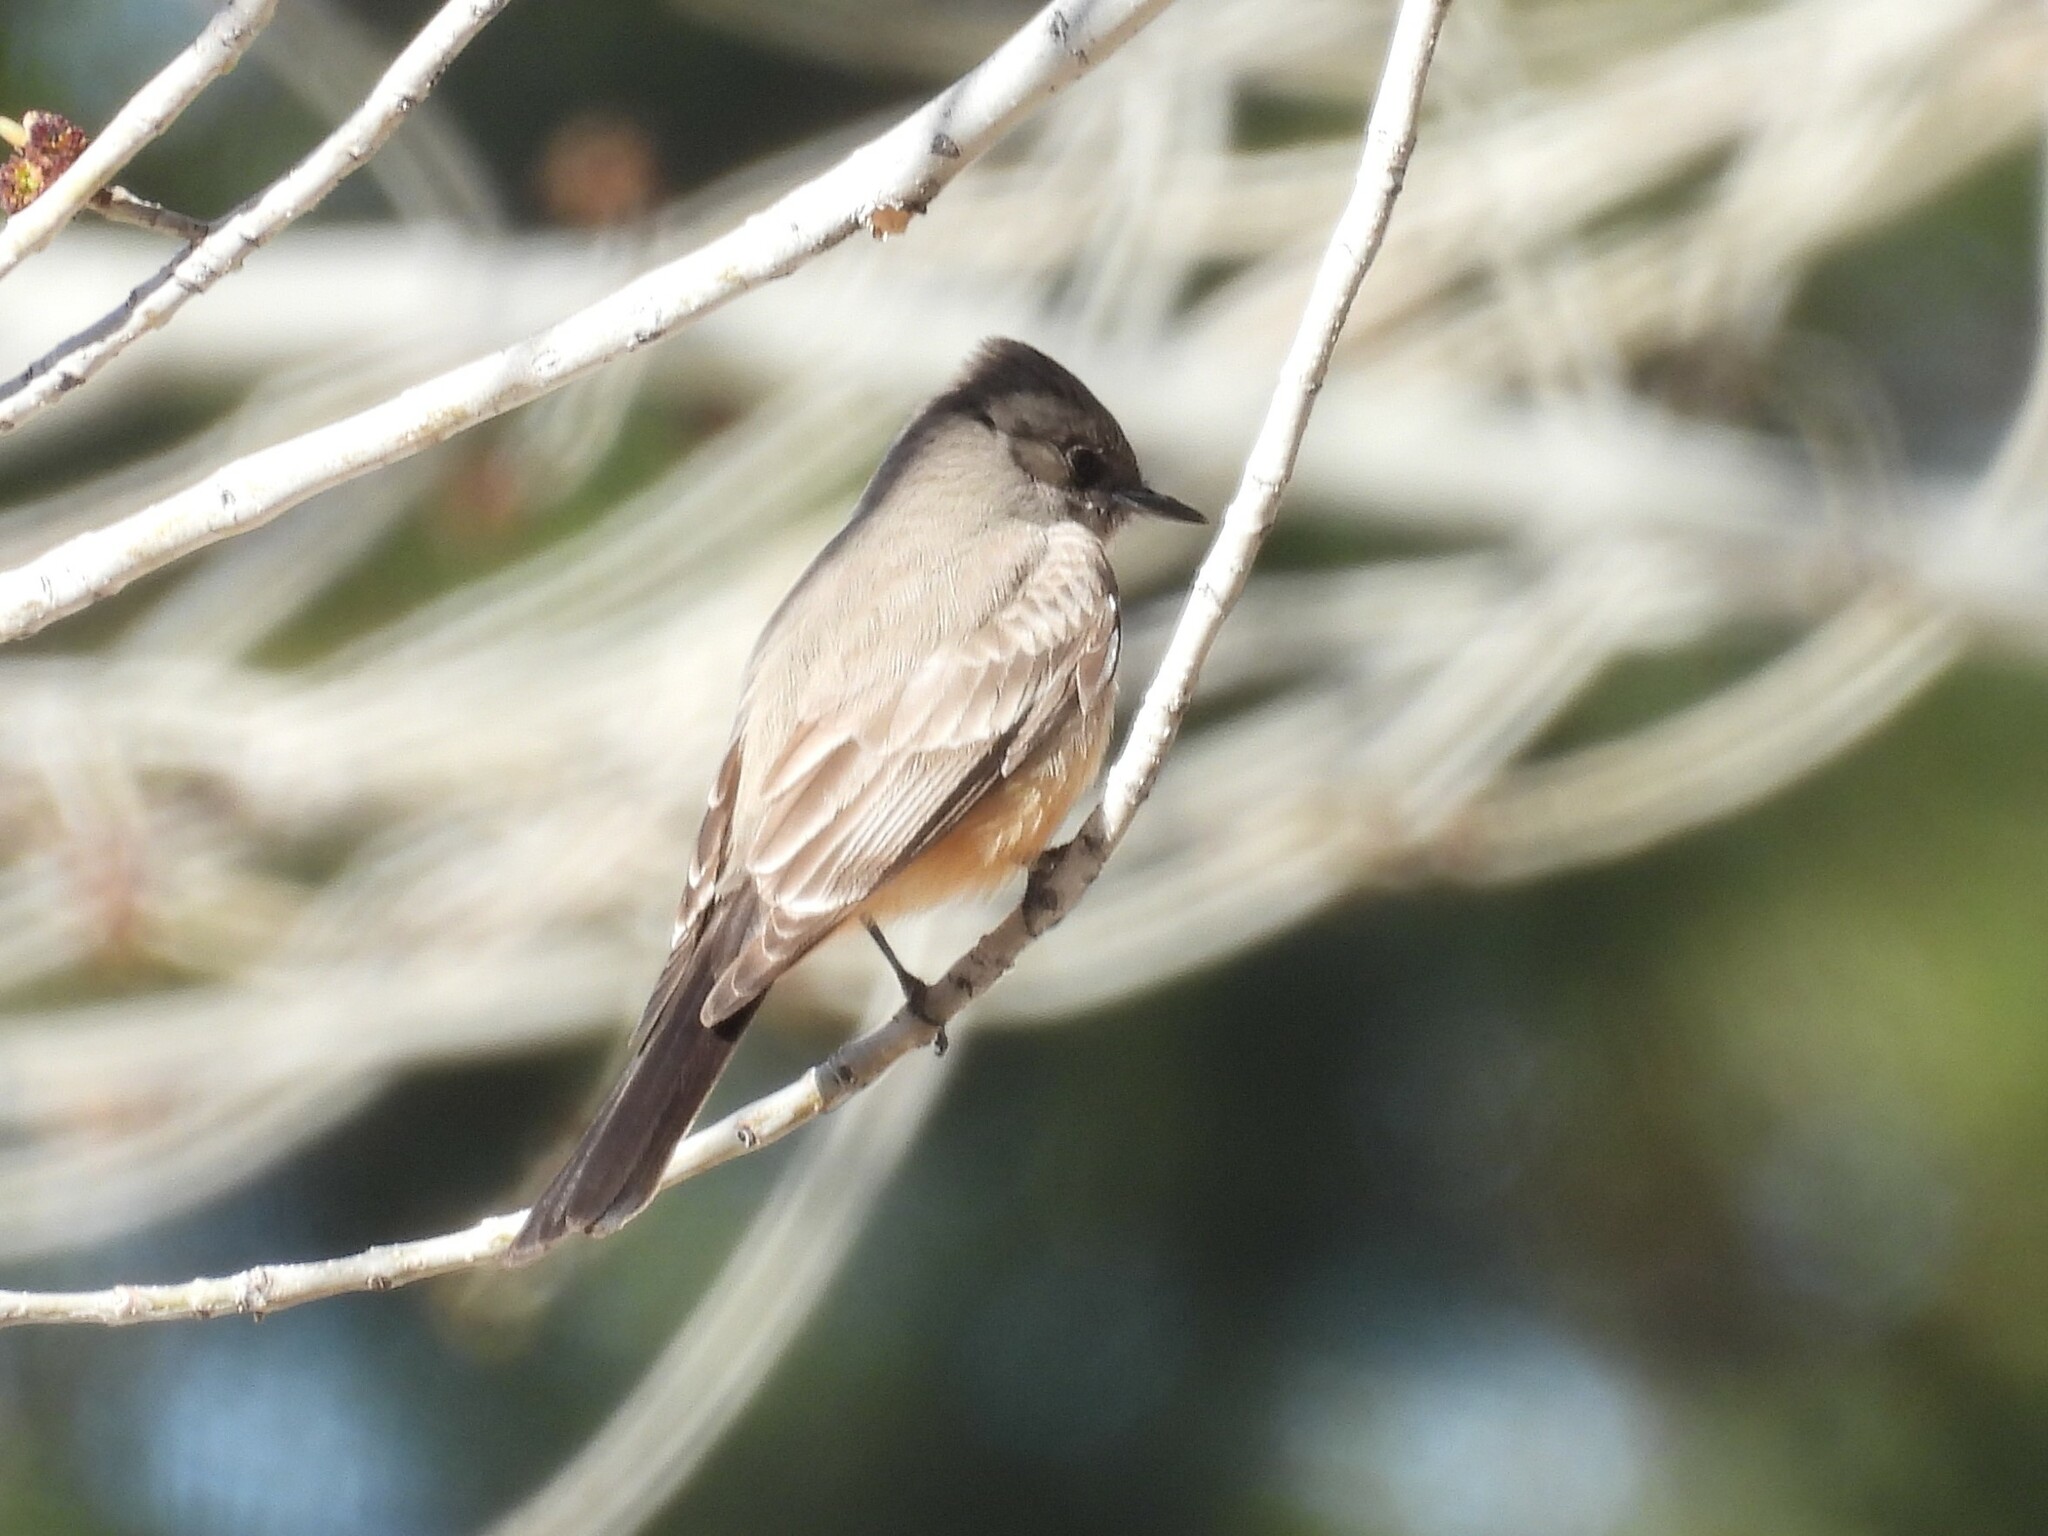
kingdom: Animalia
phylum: Chordata
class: Aves
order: Passeriformes
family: Tyrannidae
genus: Sayornis
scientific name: Sayornis saya
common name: Say's phoebe
